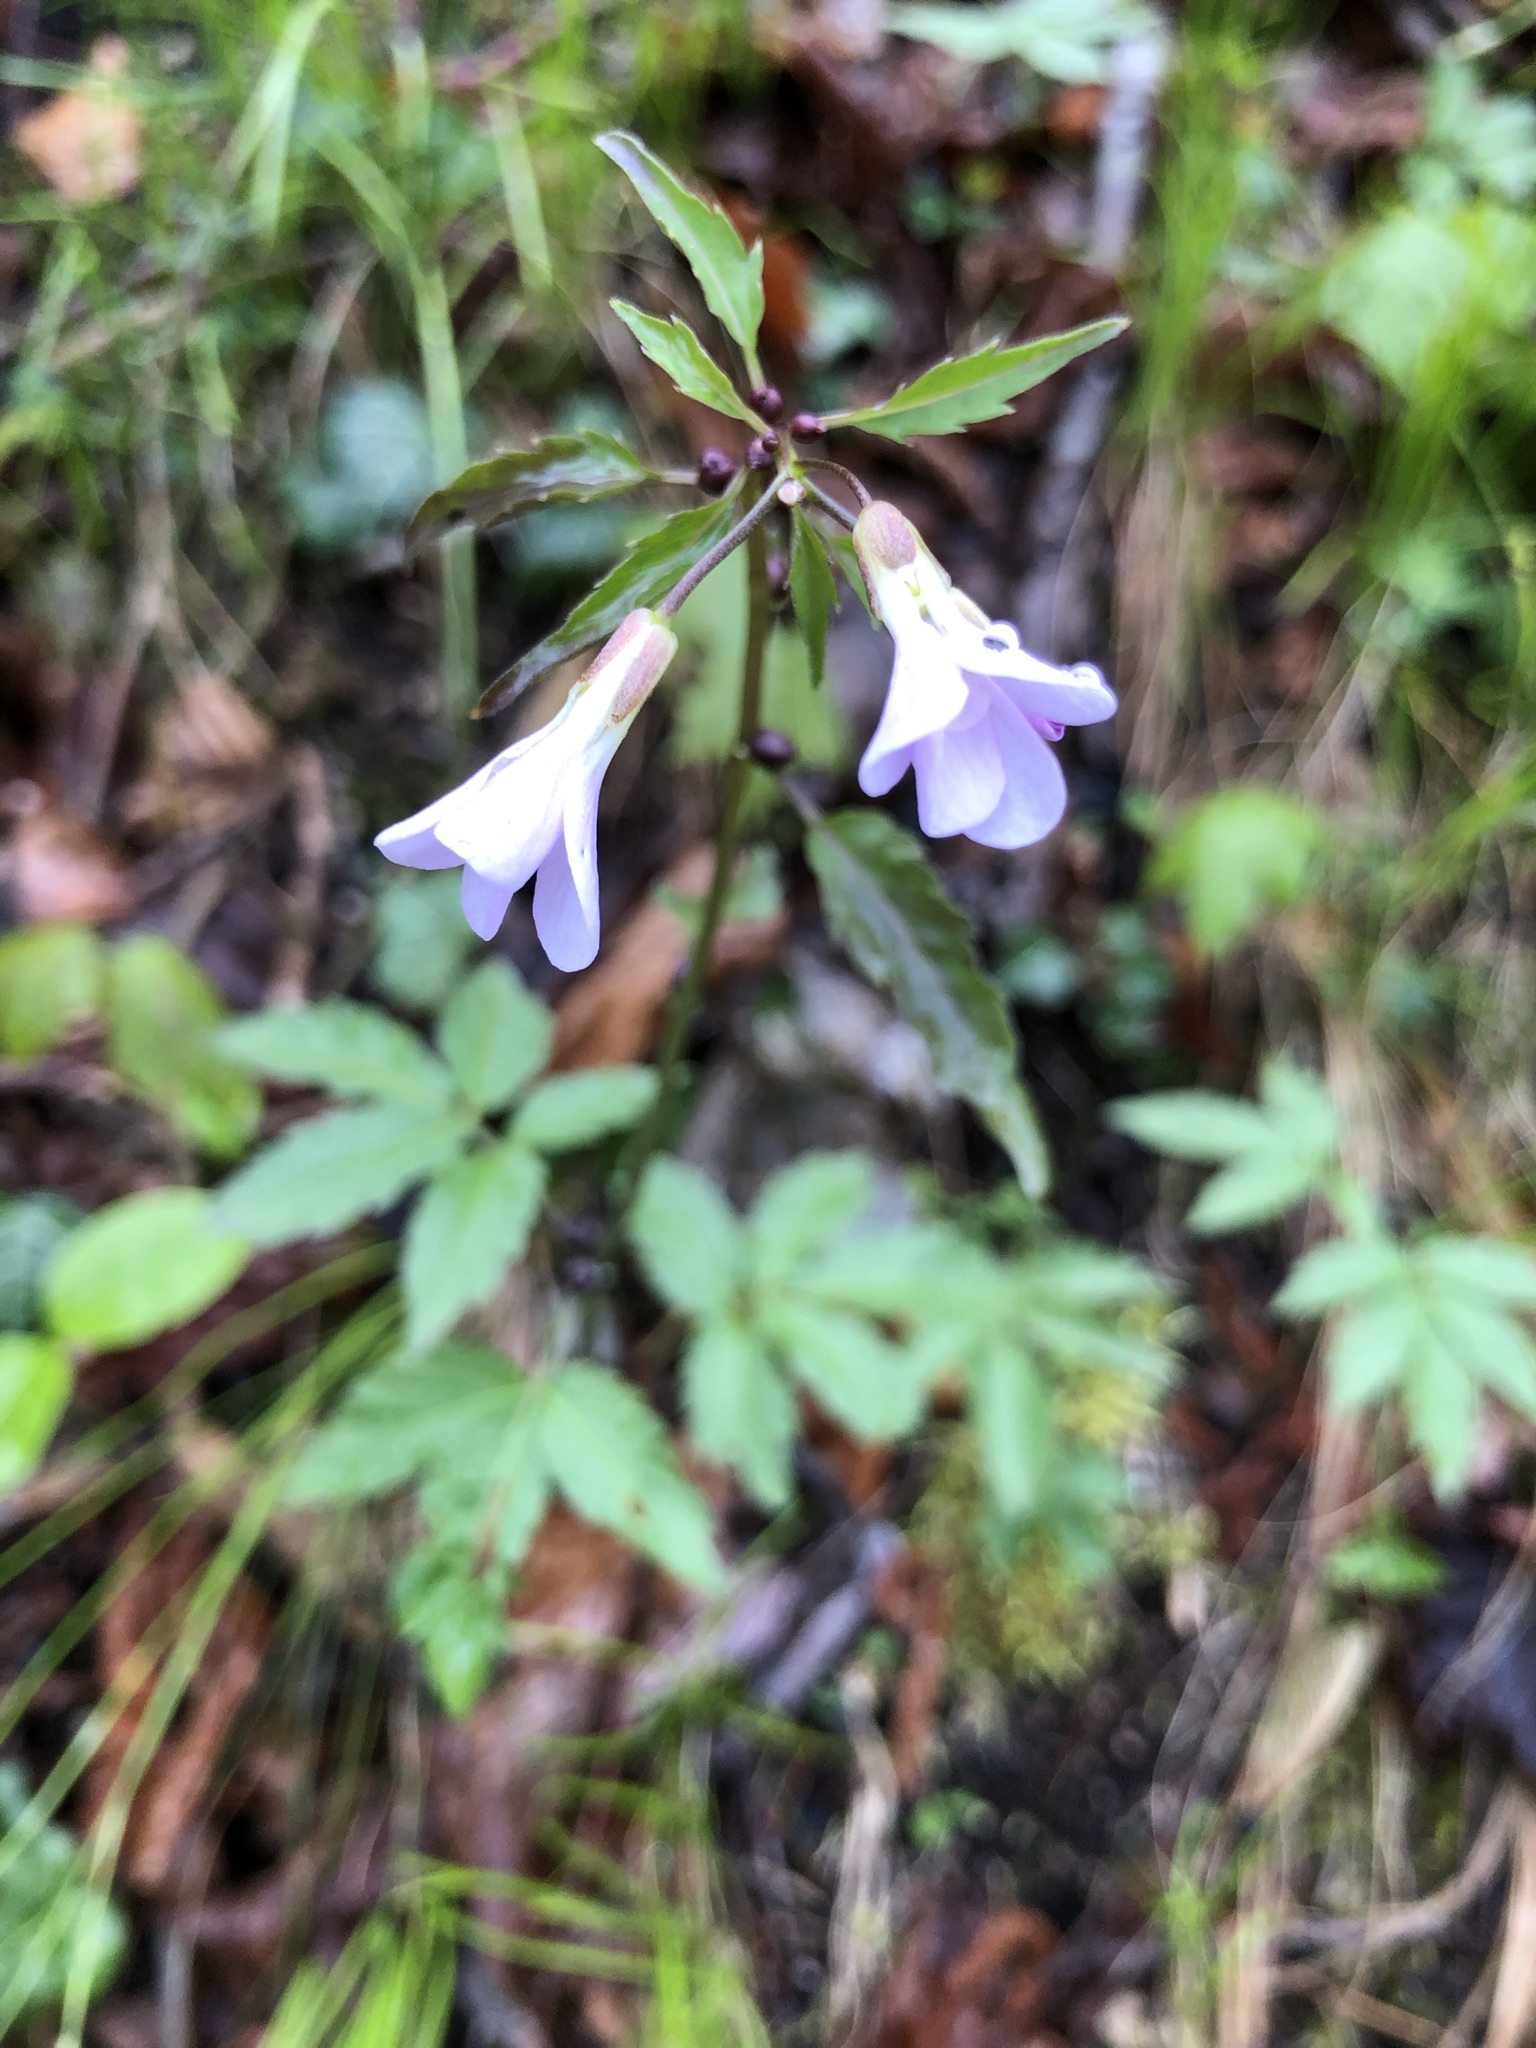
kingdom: Plantae
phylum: Tracheophyta
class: Magnoliopsida
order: Brassicales
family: Brassicaceae
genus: Cardamine
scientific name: Cardamine bulbifera
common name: Coralroot bittercress
